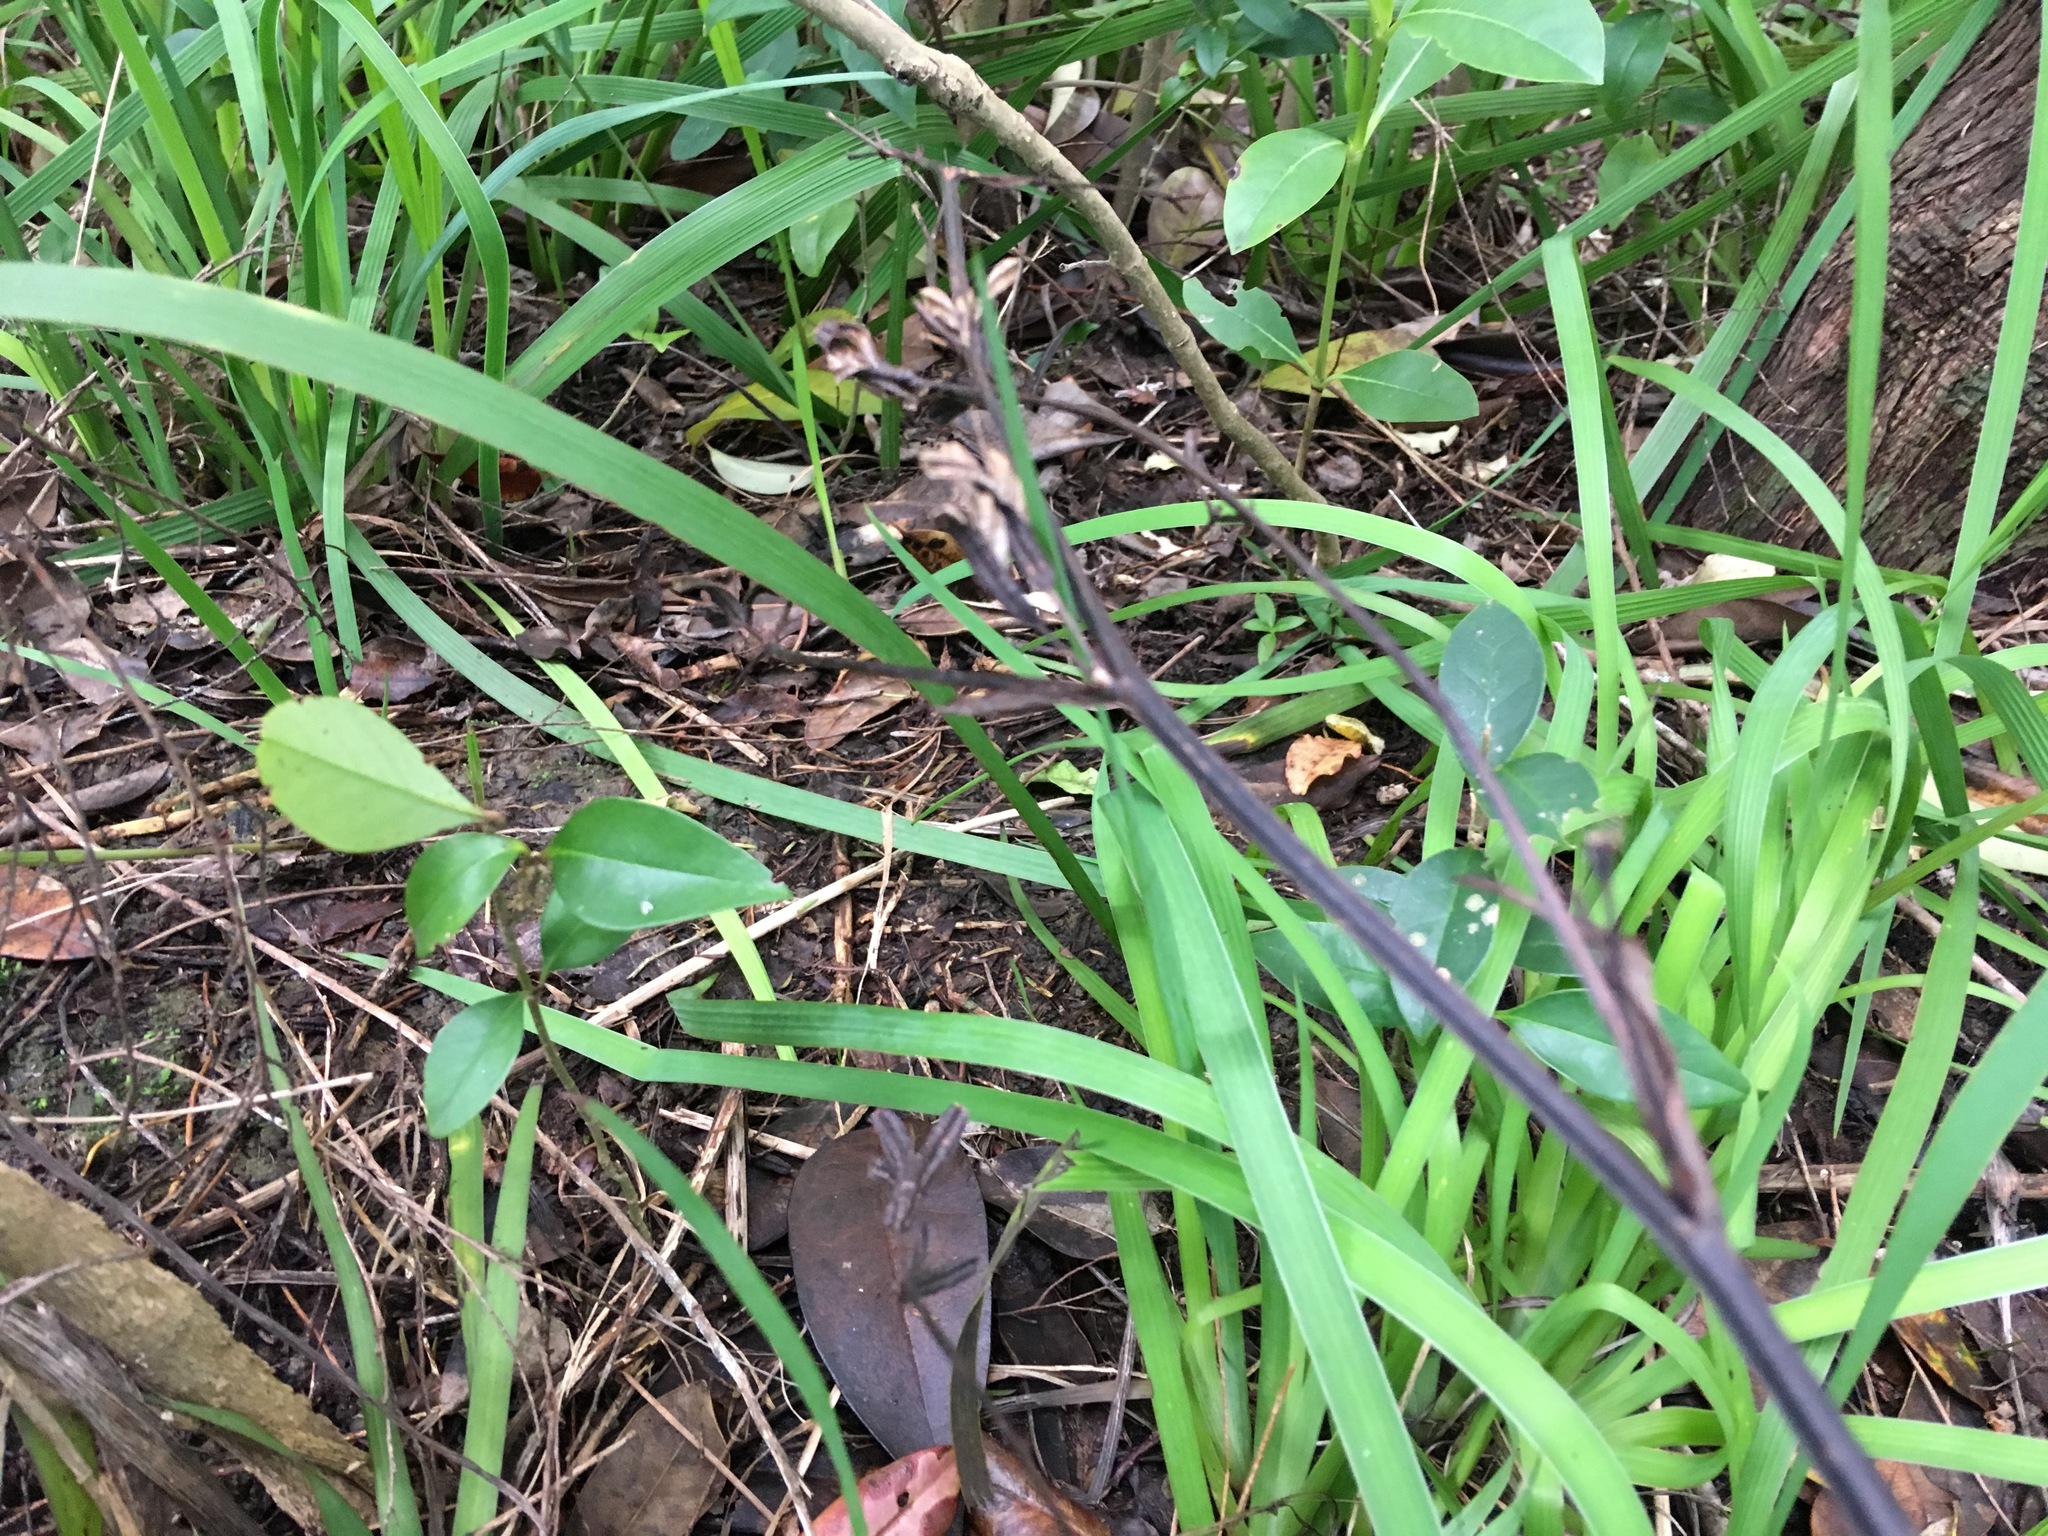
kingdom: Plantae
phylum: Tracheophyta
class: Magnoliopsida
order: Lamiales
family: Oleaceae
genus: Ligustrum
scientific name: Ligustrum lucidum
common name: Glossy privet
